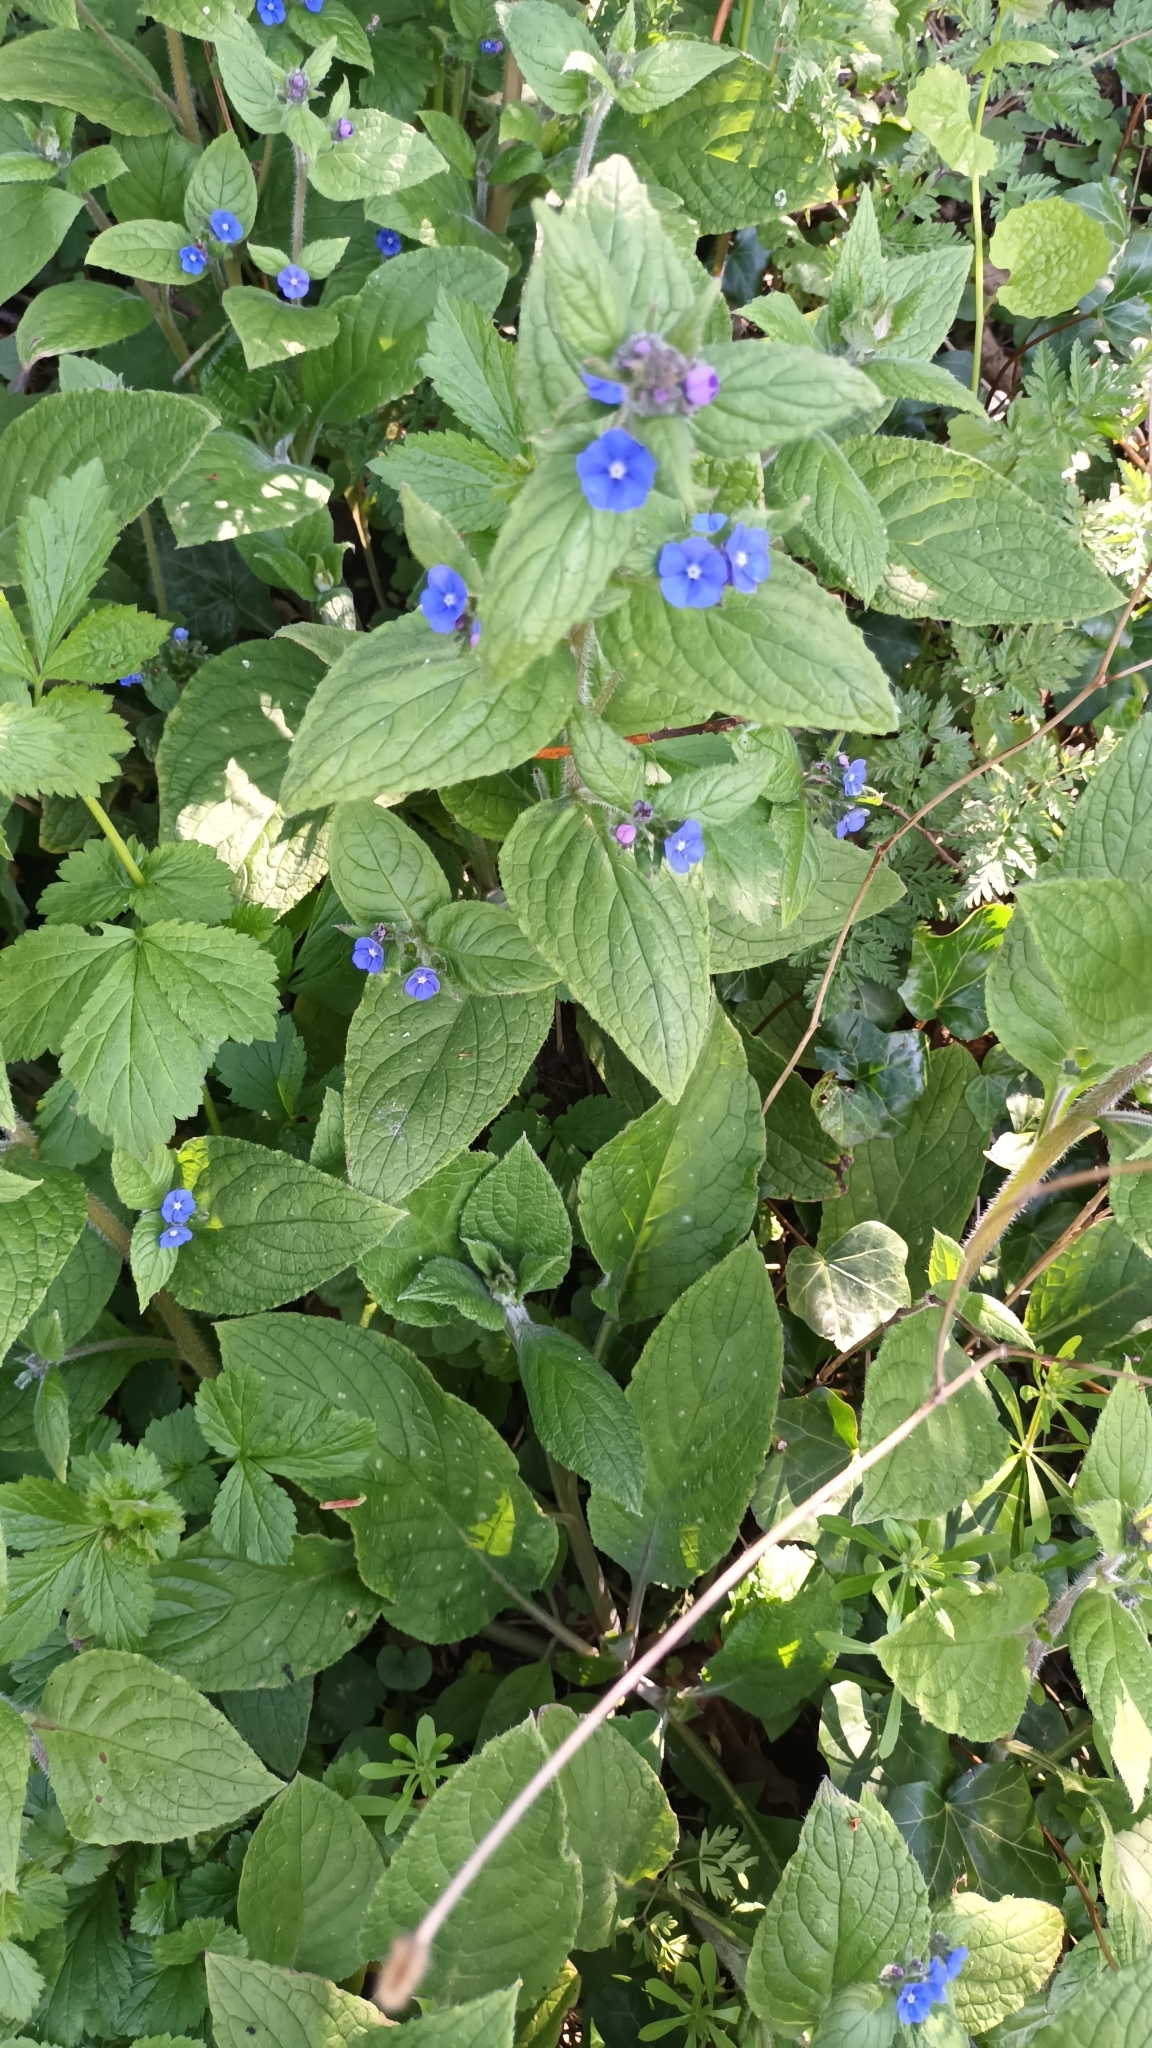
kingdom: Plantae
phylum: Tracheophyta
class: Magnoliopsida
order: Boraginales
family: Boraginaceae
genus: Pentaglottis
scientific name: Pentaglottis sempervirens
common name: Green alkanet
